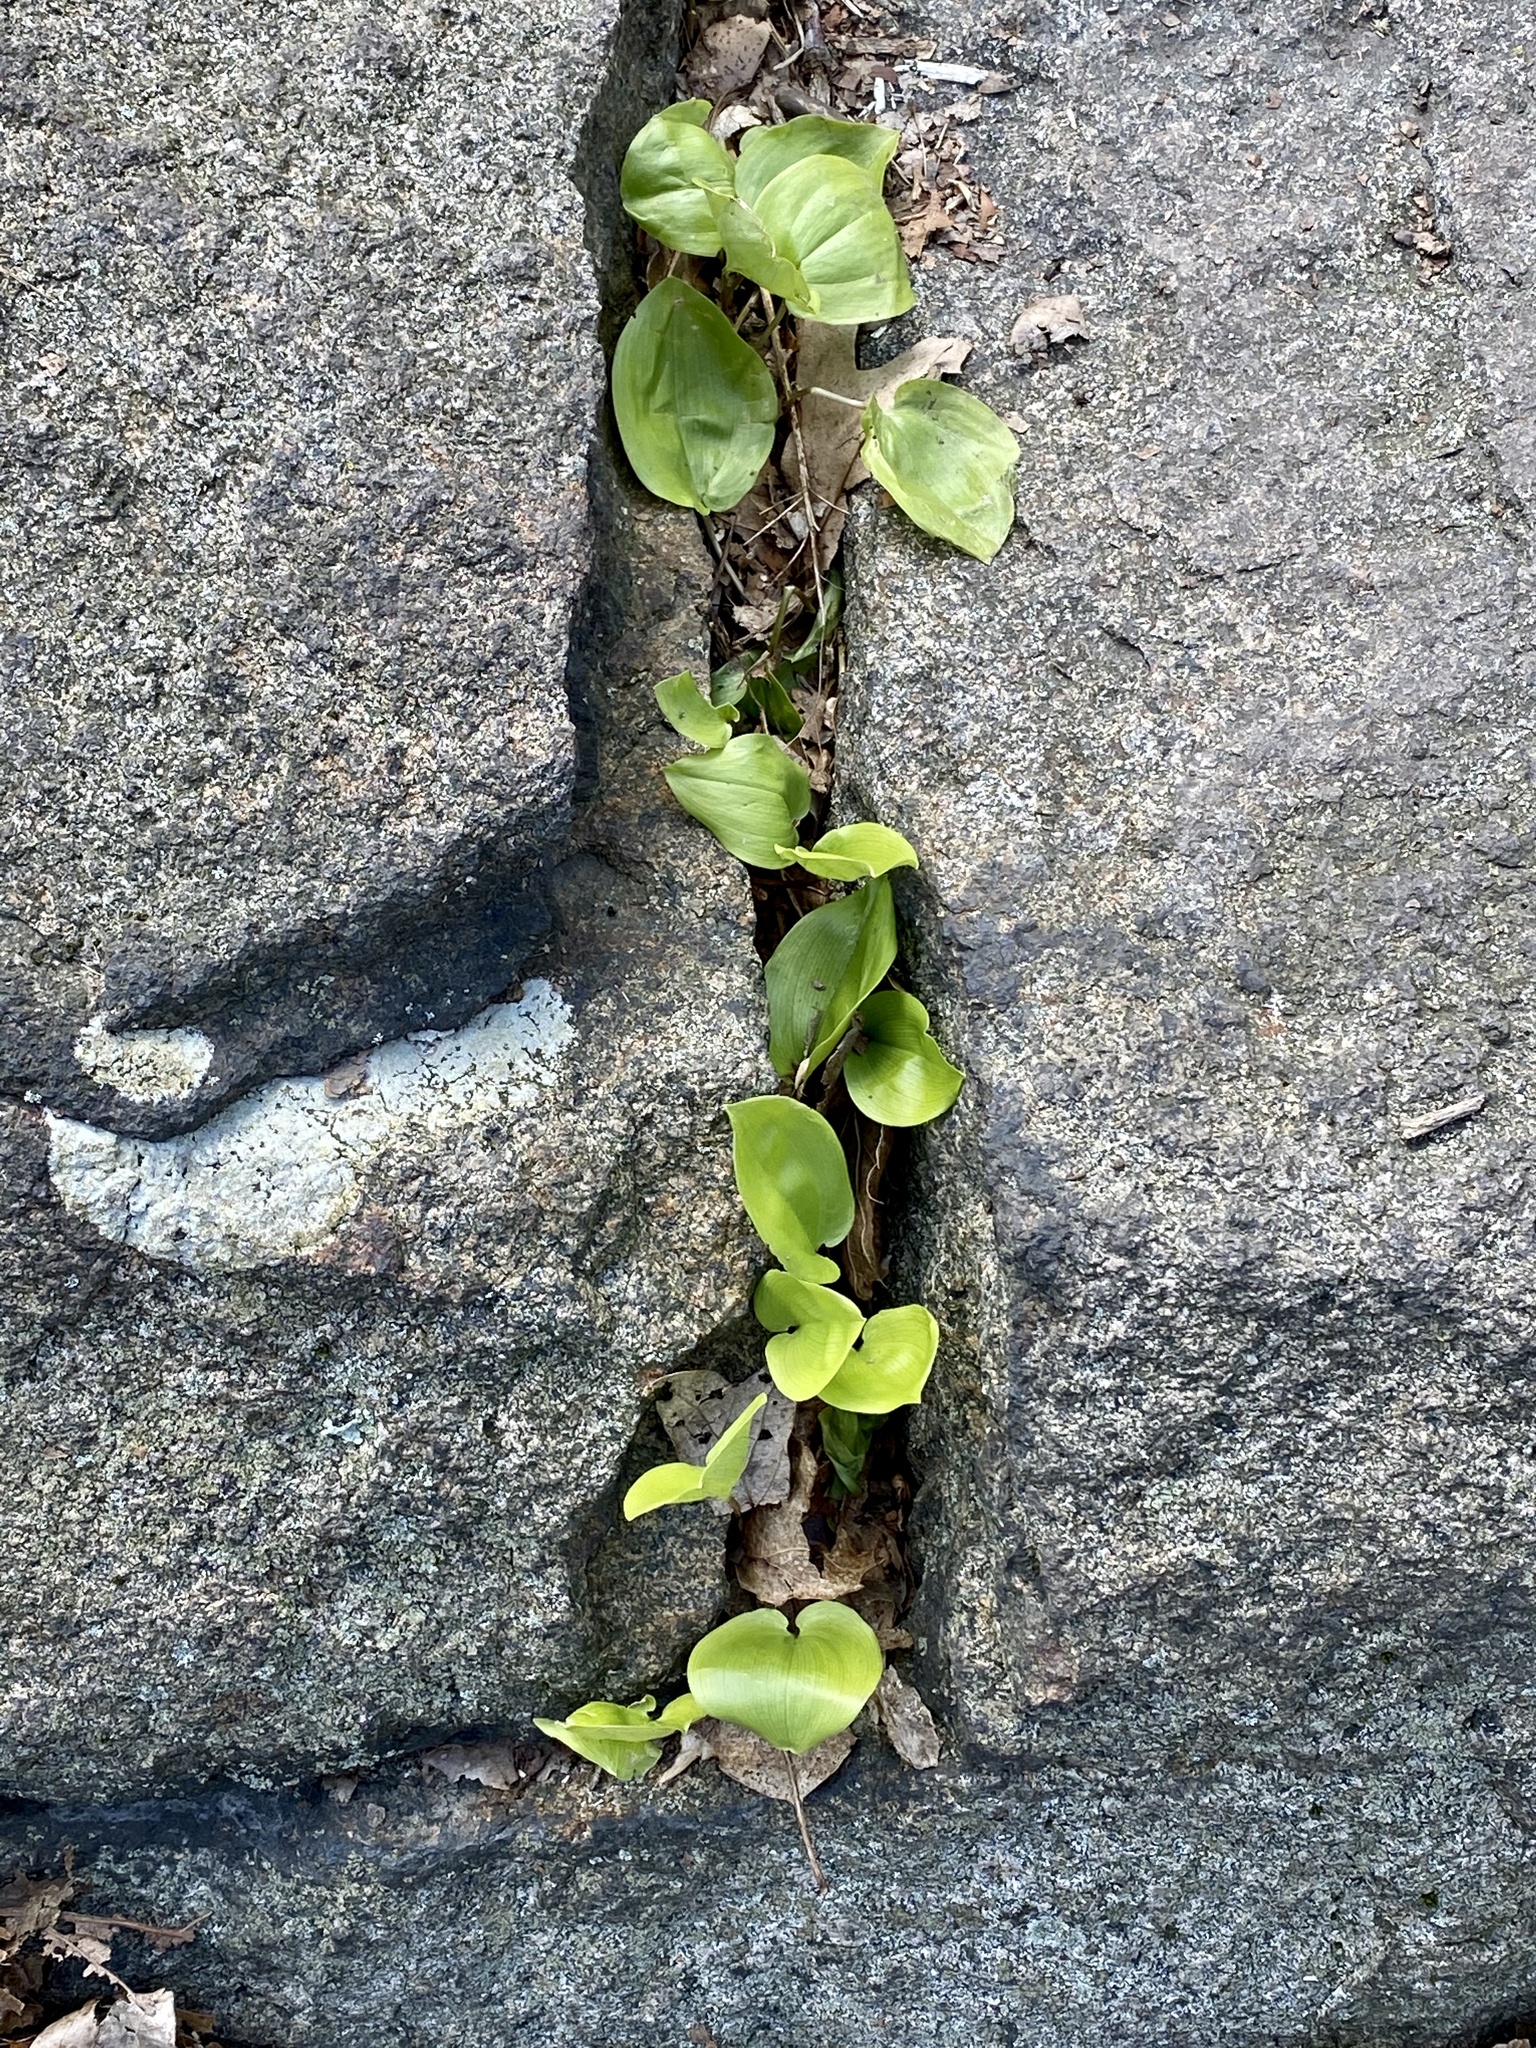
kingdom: Plantae
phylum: Tracheophyta
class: Liliopsida
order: Asparagales
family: Asparagaceae
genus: Maianthemum
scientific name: Maianthemum canadense
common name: False lily-of-the-valley
